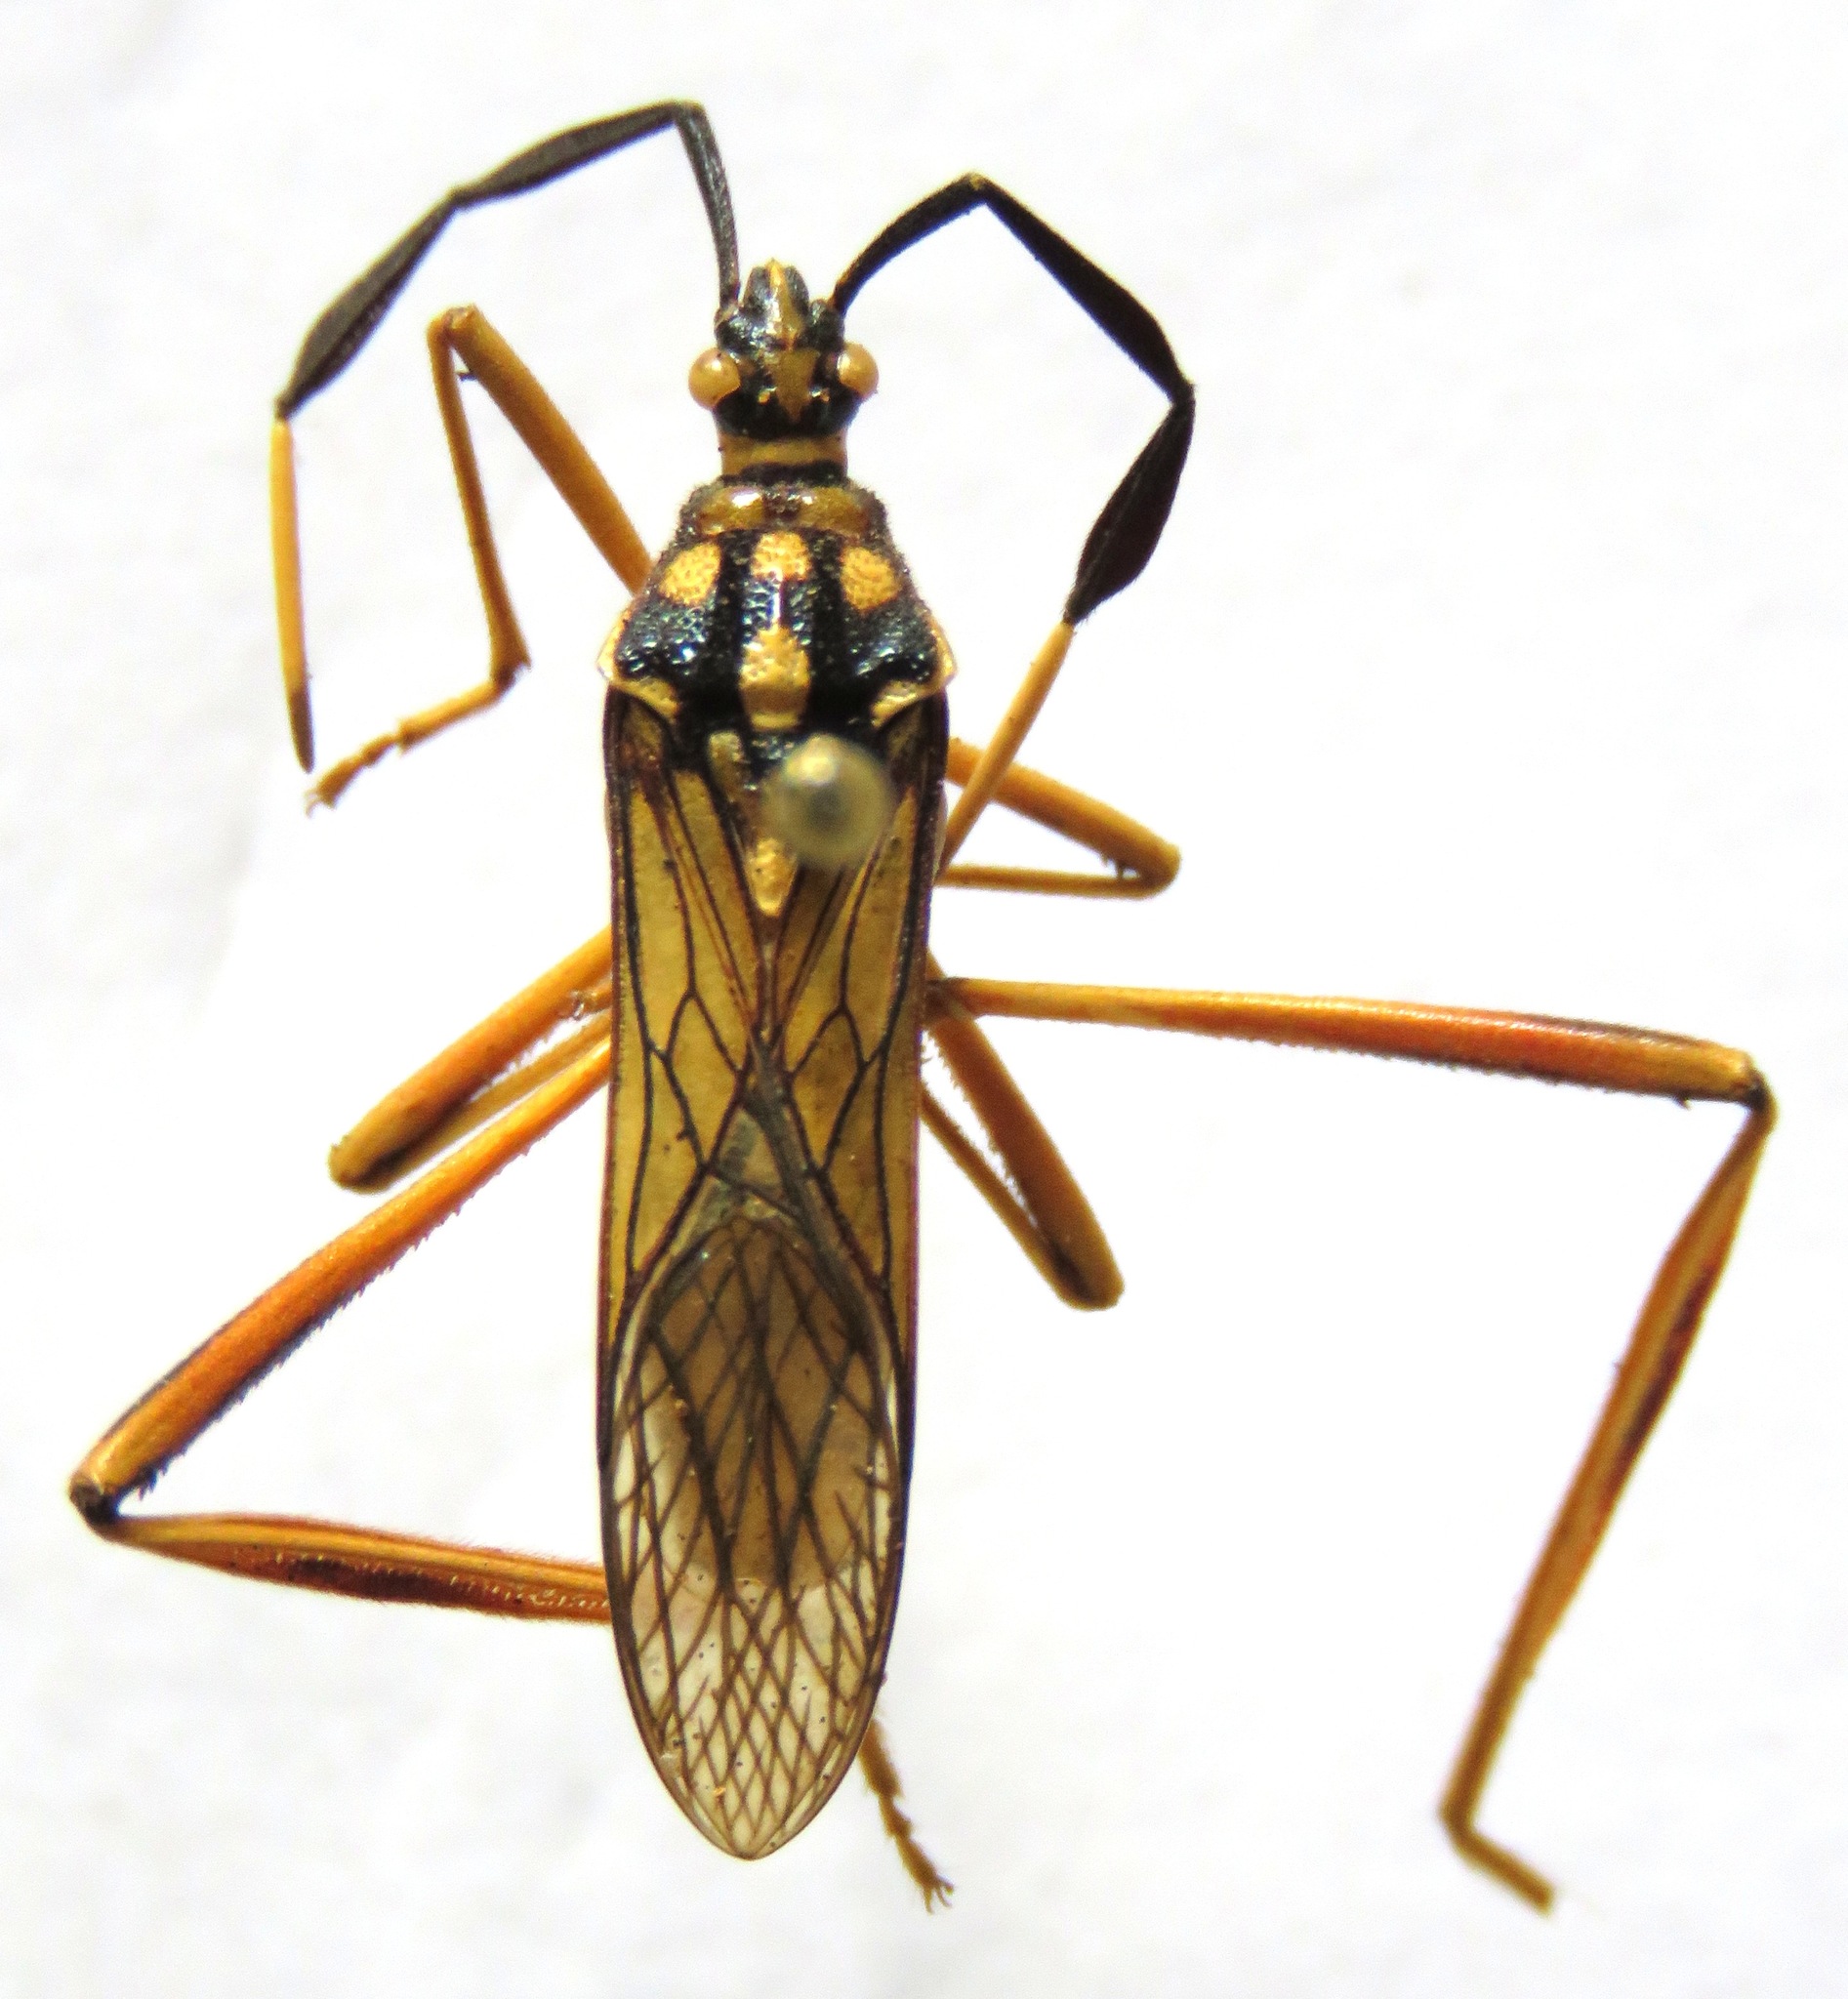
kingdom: Animalia
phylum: Arthropoda
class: Insecta
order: Hemiptera
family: Coreidae
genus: Holhymenia
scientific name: Holhymenia histrio
